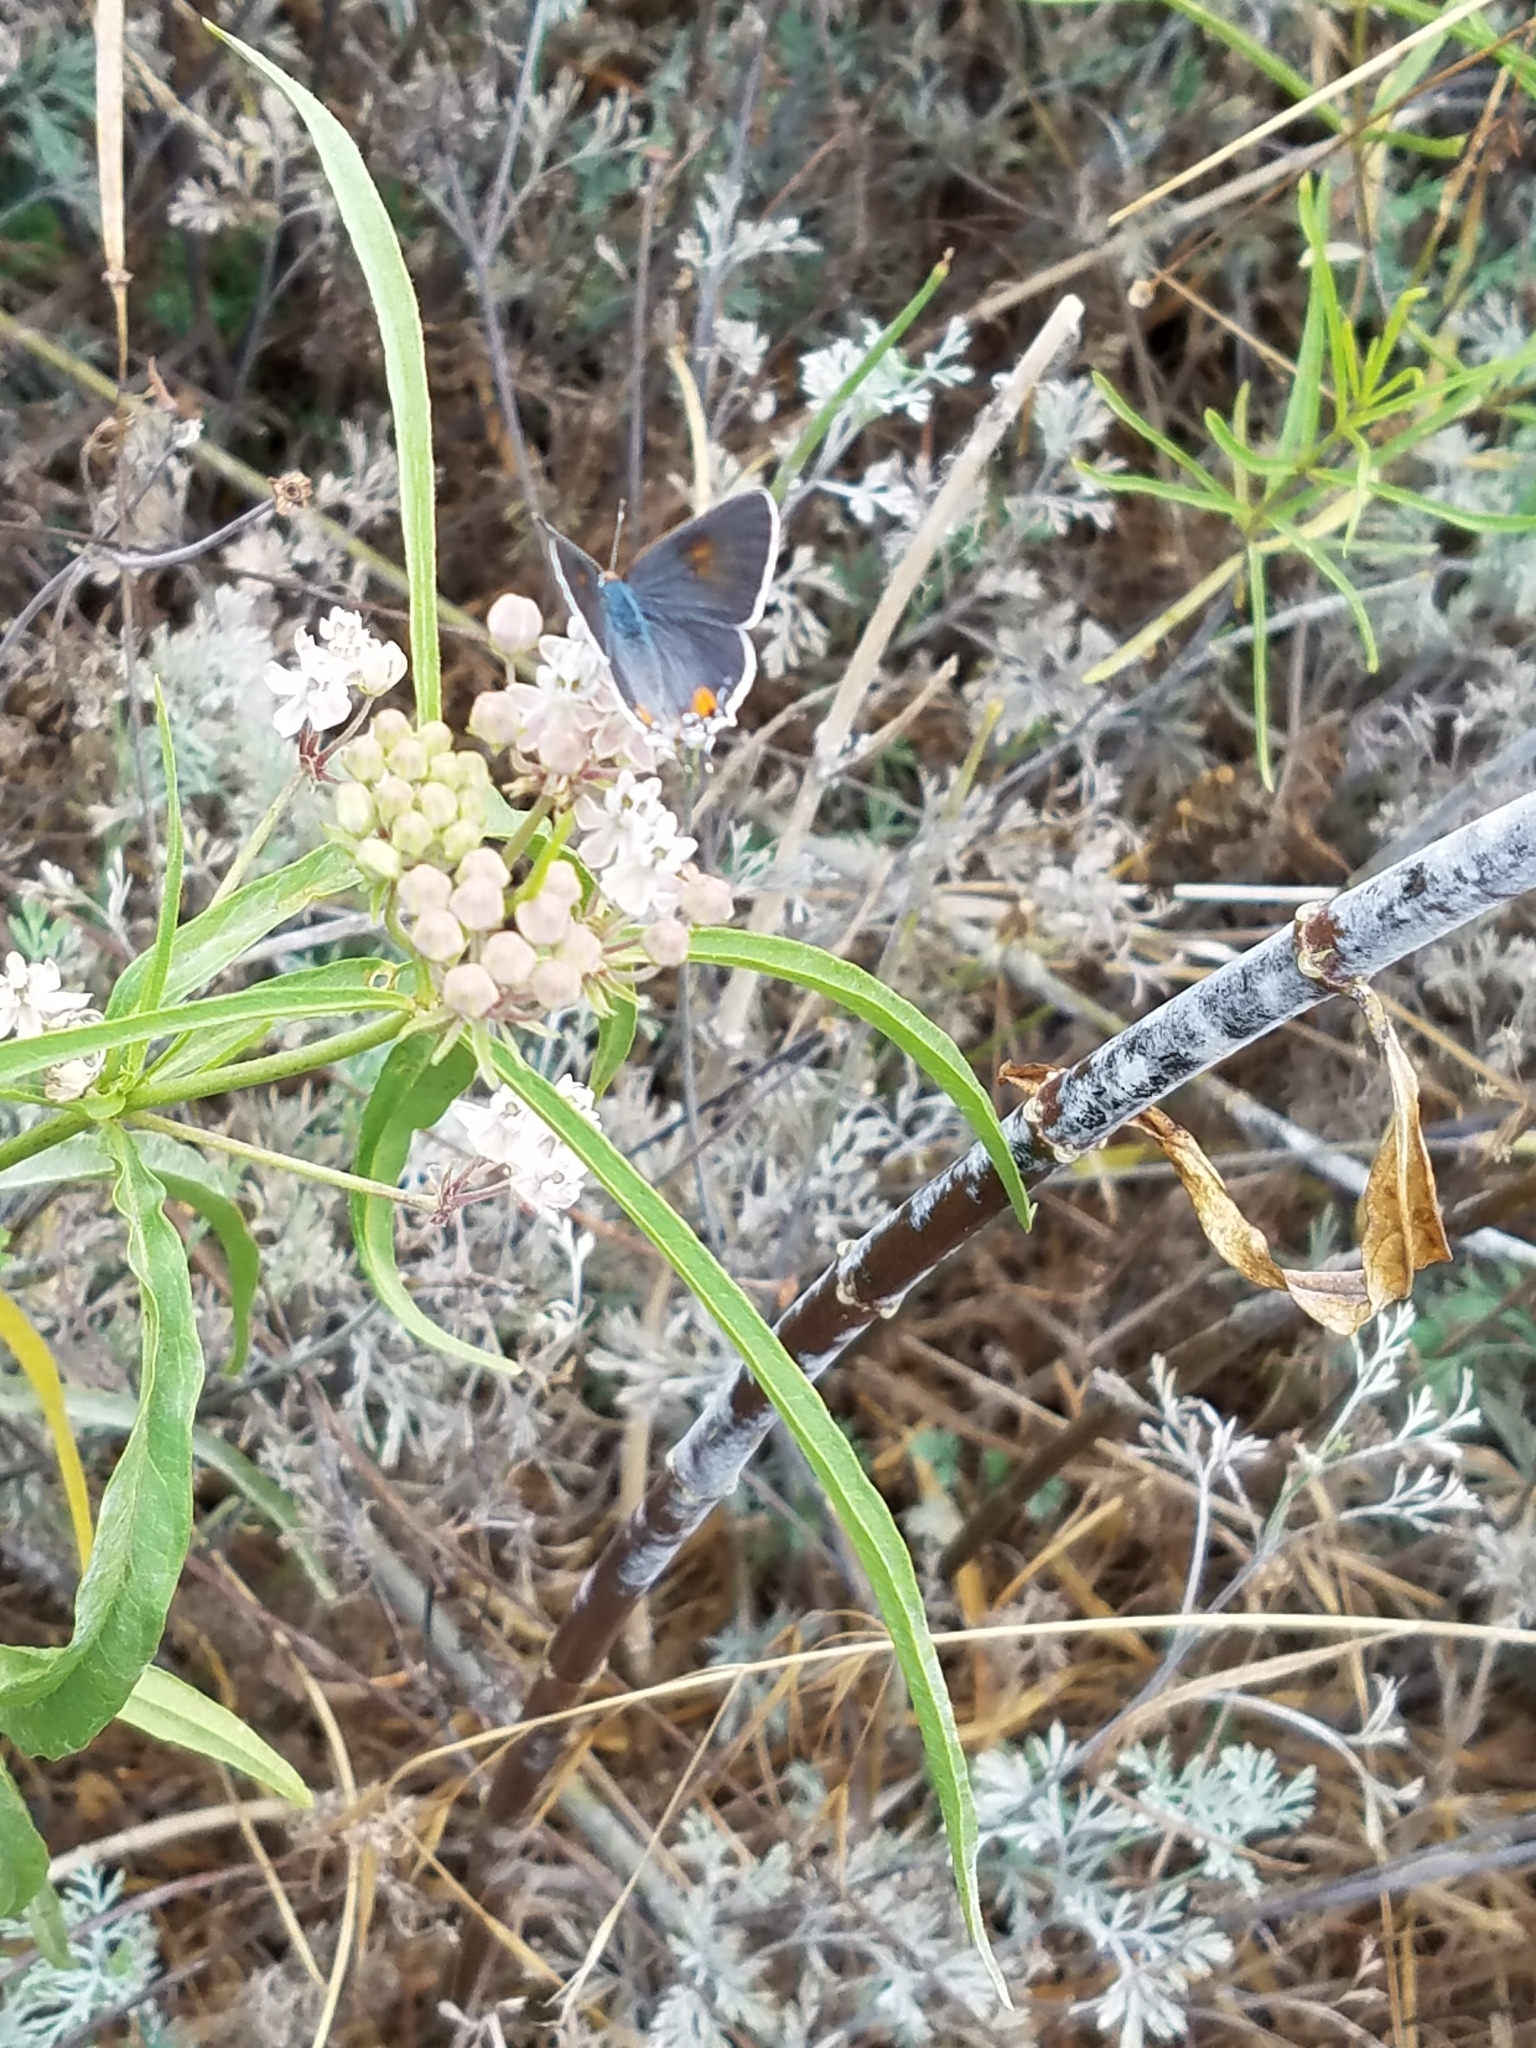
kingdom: Animalia
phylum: Arthropoda
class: Insecta
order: Lepidoptera
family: Lycaenidae
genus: Strymon
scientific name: Strymon melinus
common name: Gray hairstreak
